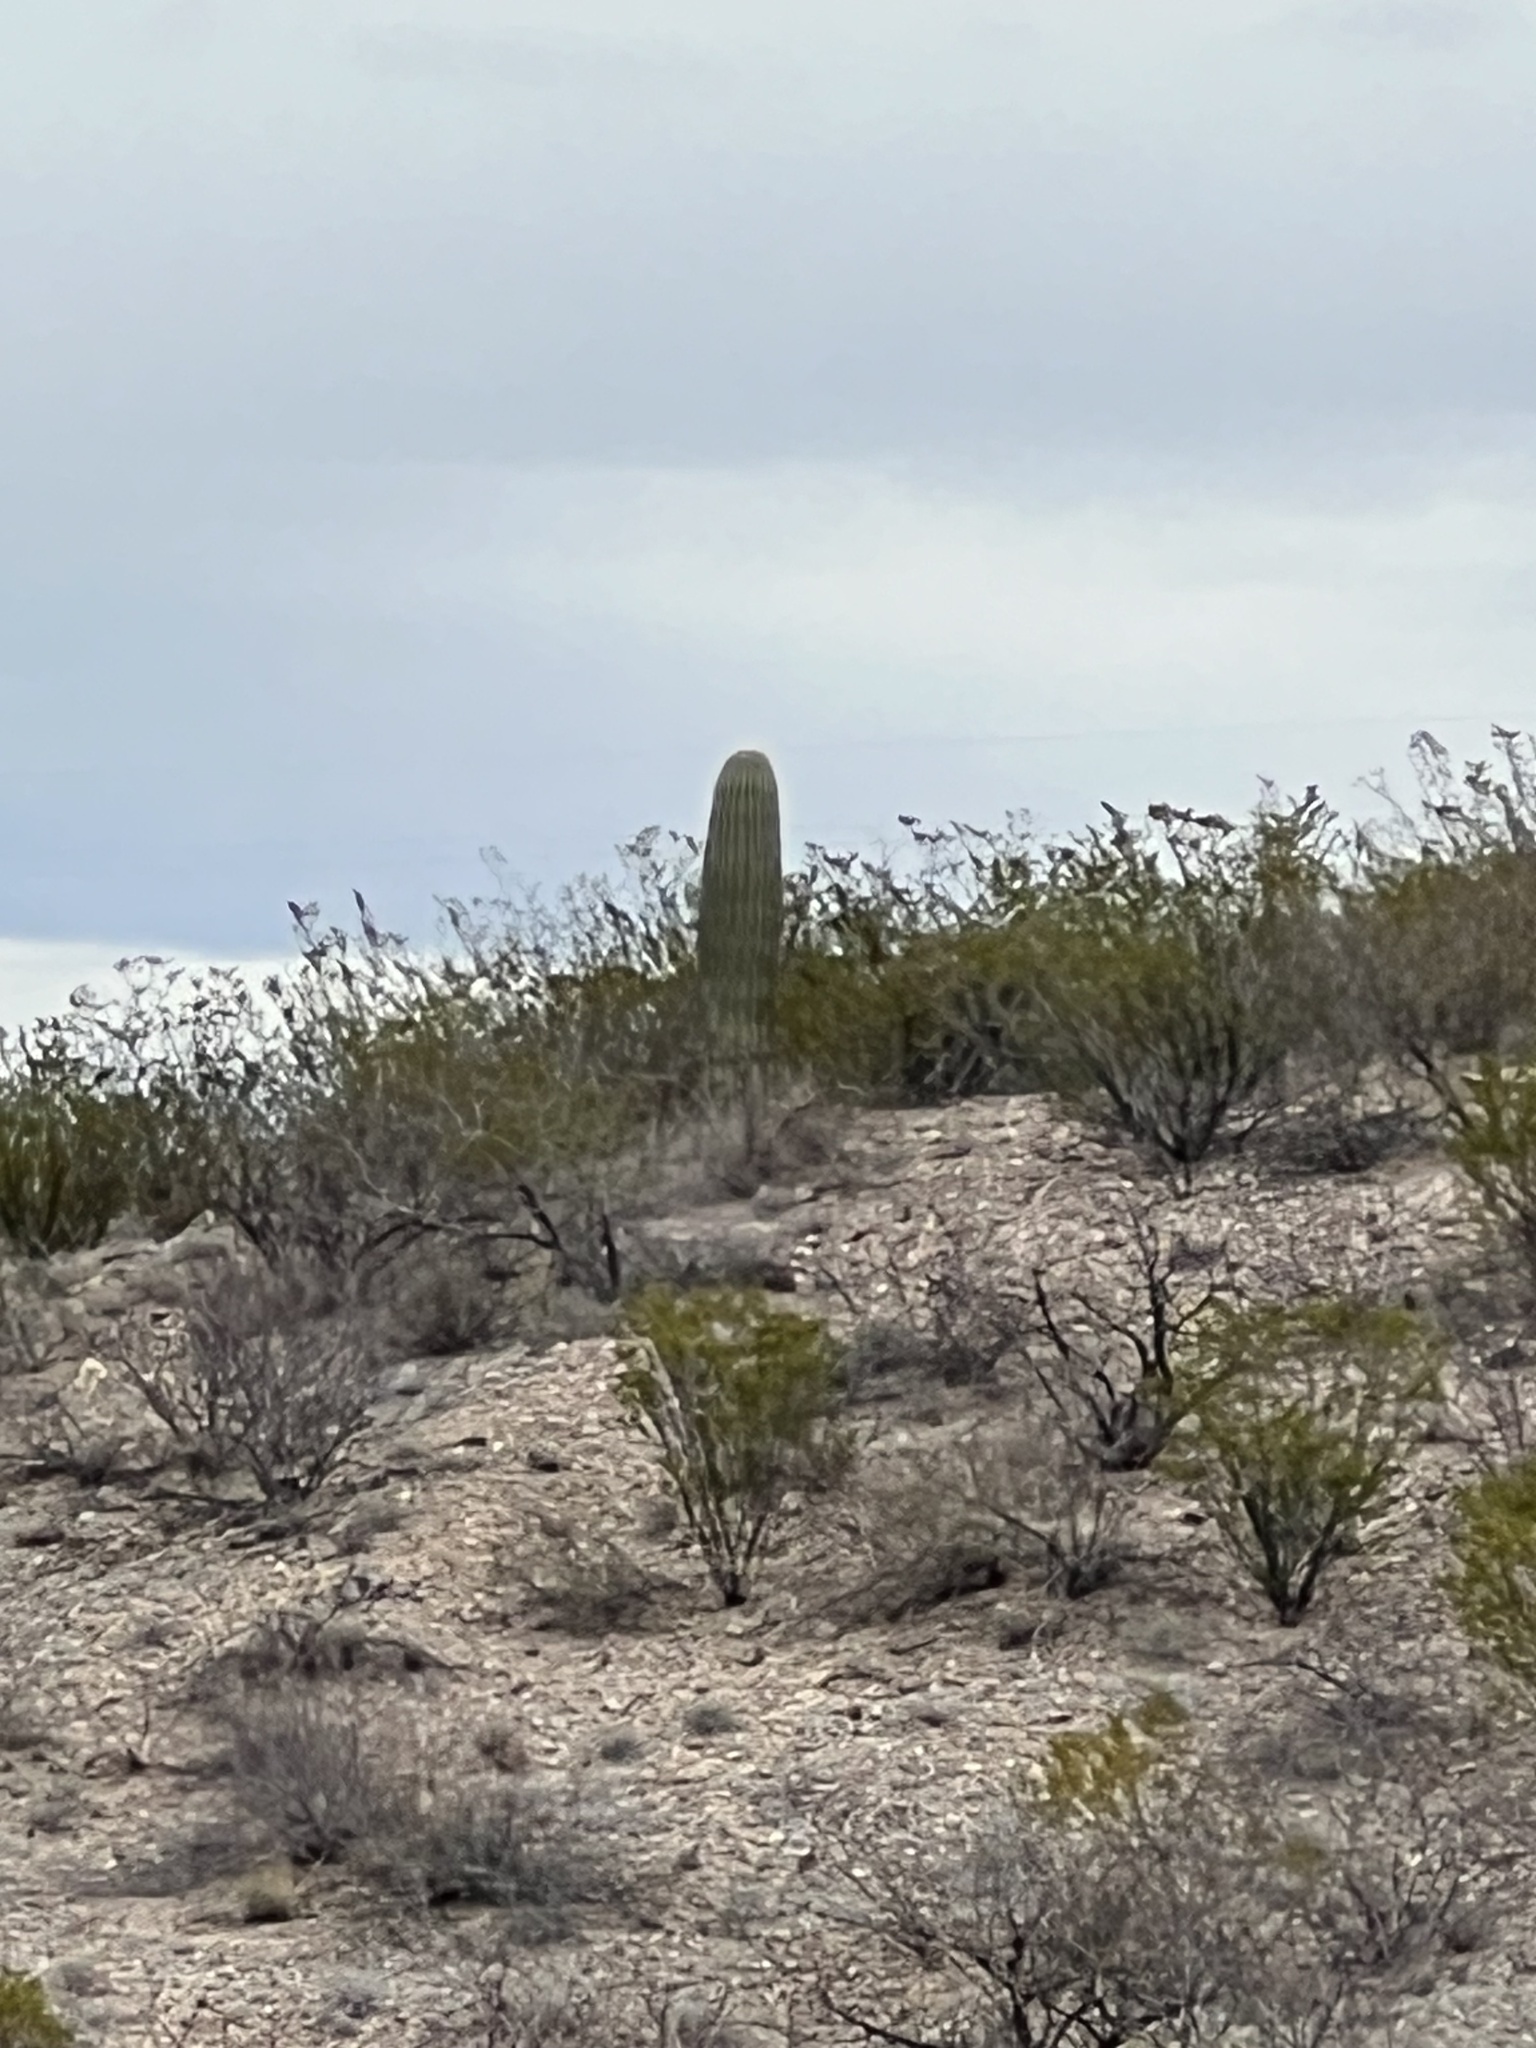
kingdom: Plantae
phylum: Tracheophyta
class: Magnoliopsida
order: Caryophyllales
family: Cactaceae
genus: Carnegiea
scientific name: Carnegiea gigantea
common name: Saguaro
